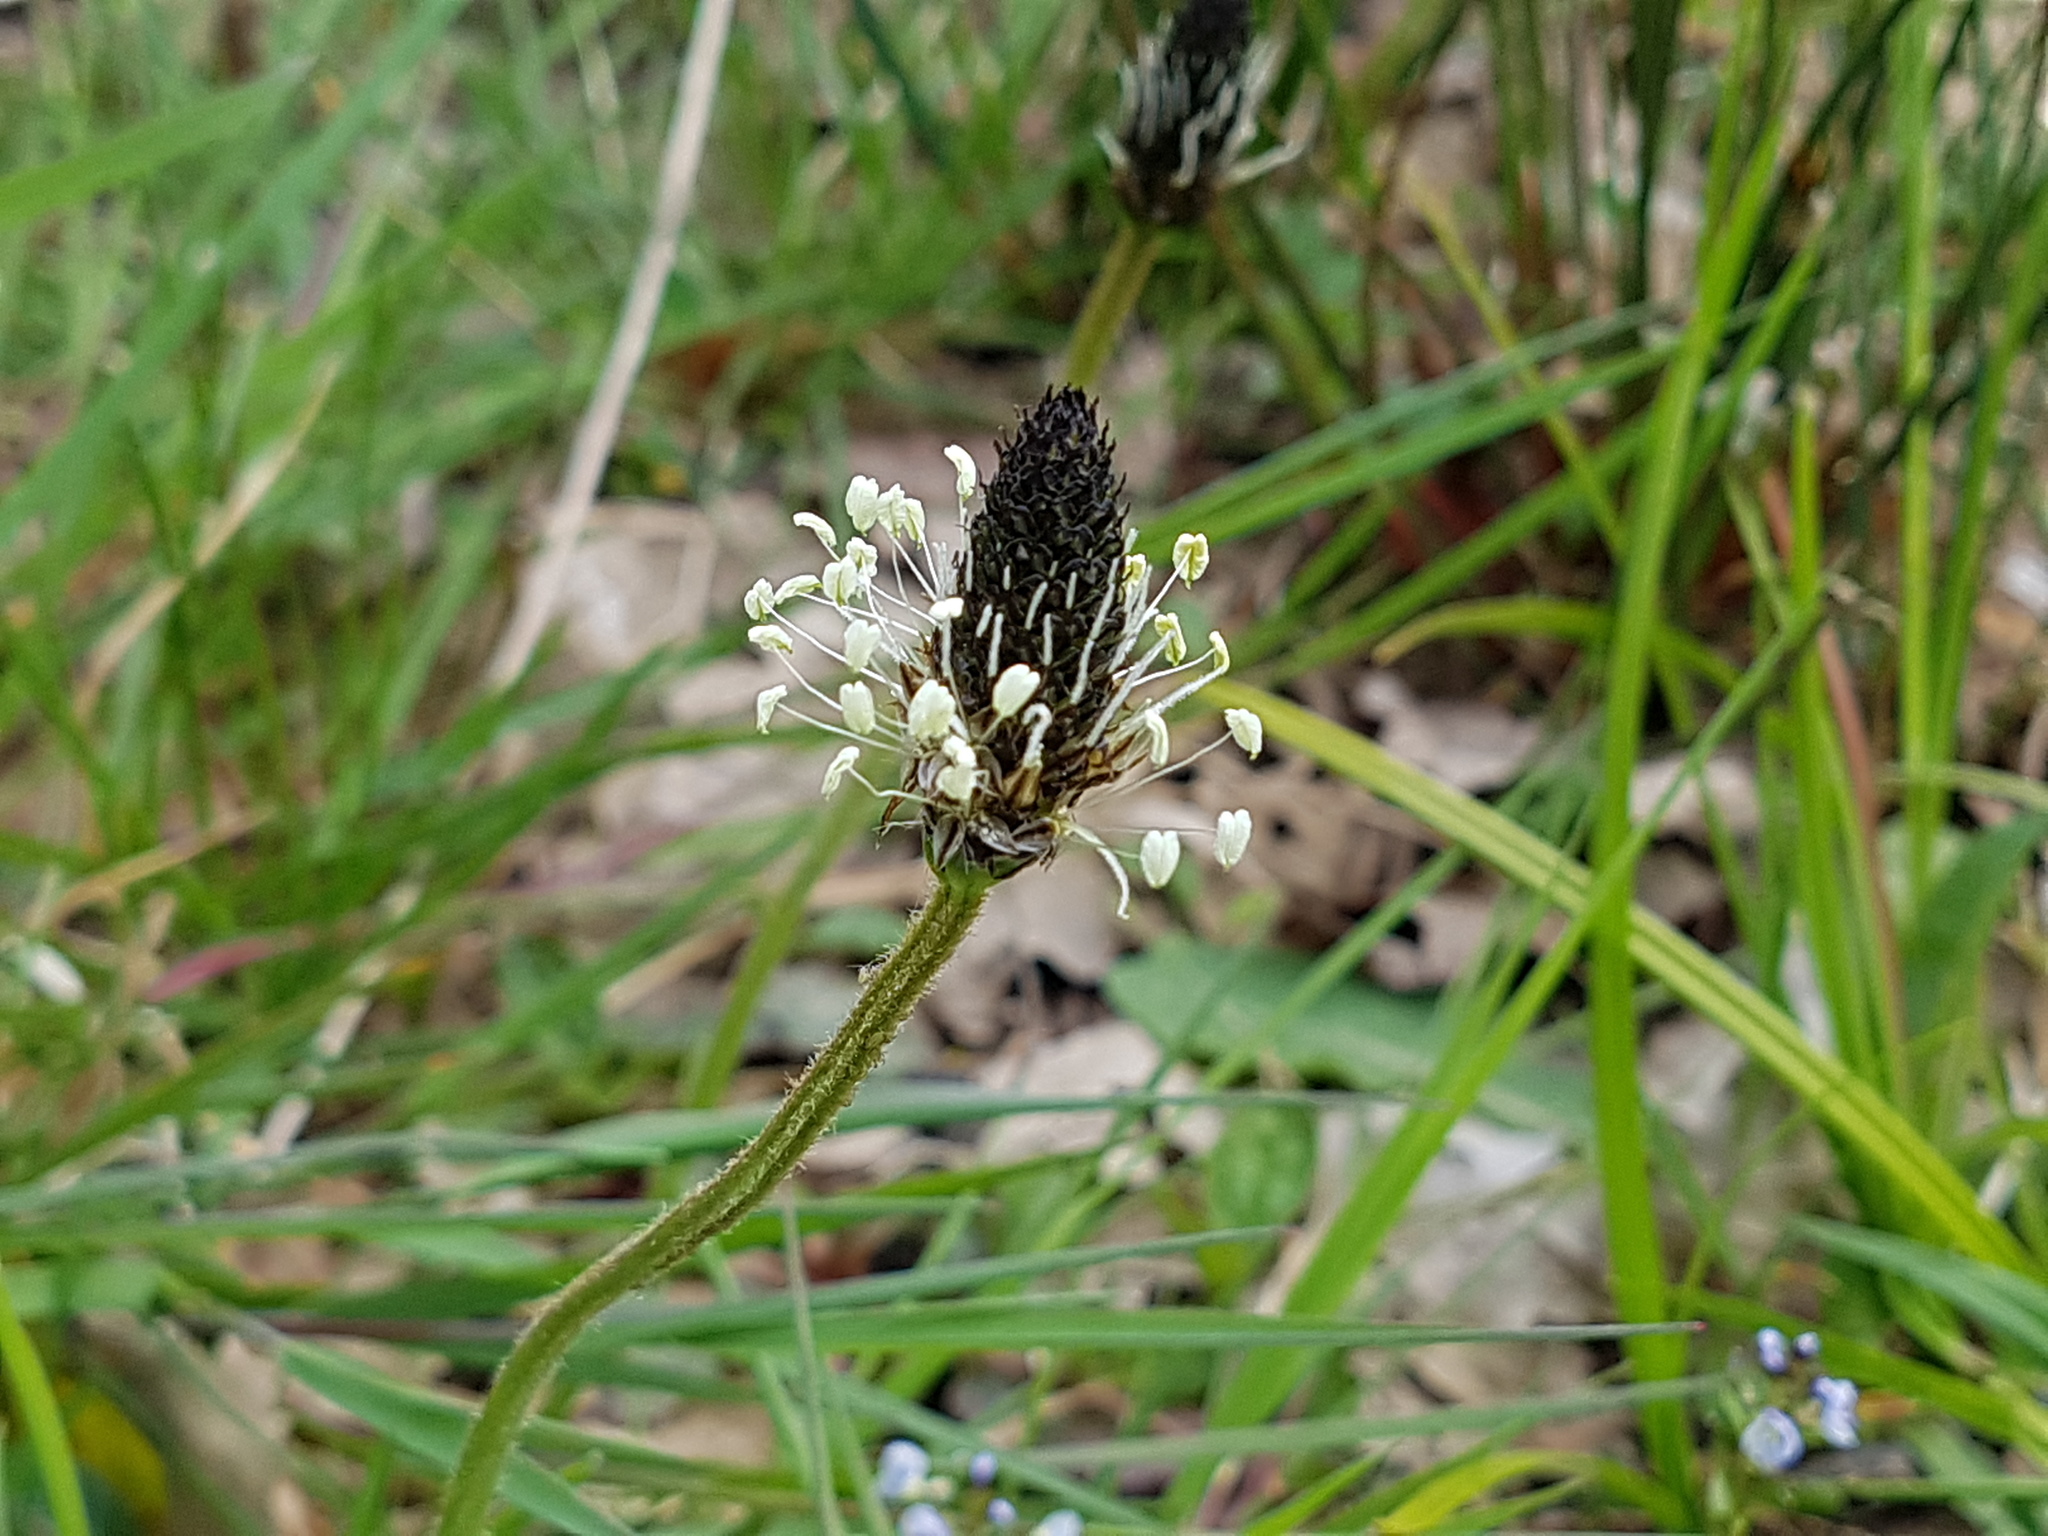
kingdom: Plantae
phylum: Tracheophyta
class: Magnoliopsida
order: Lamiales
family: Plantaginaceae
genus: Plantago
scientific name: Plantago lanceolata
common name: Ribwort plantain
